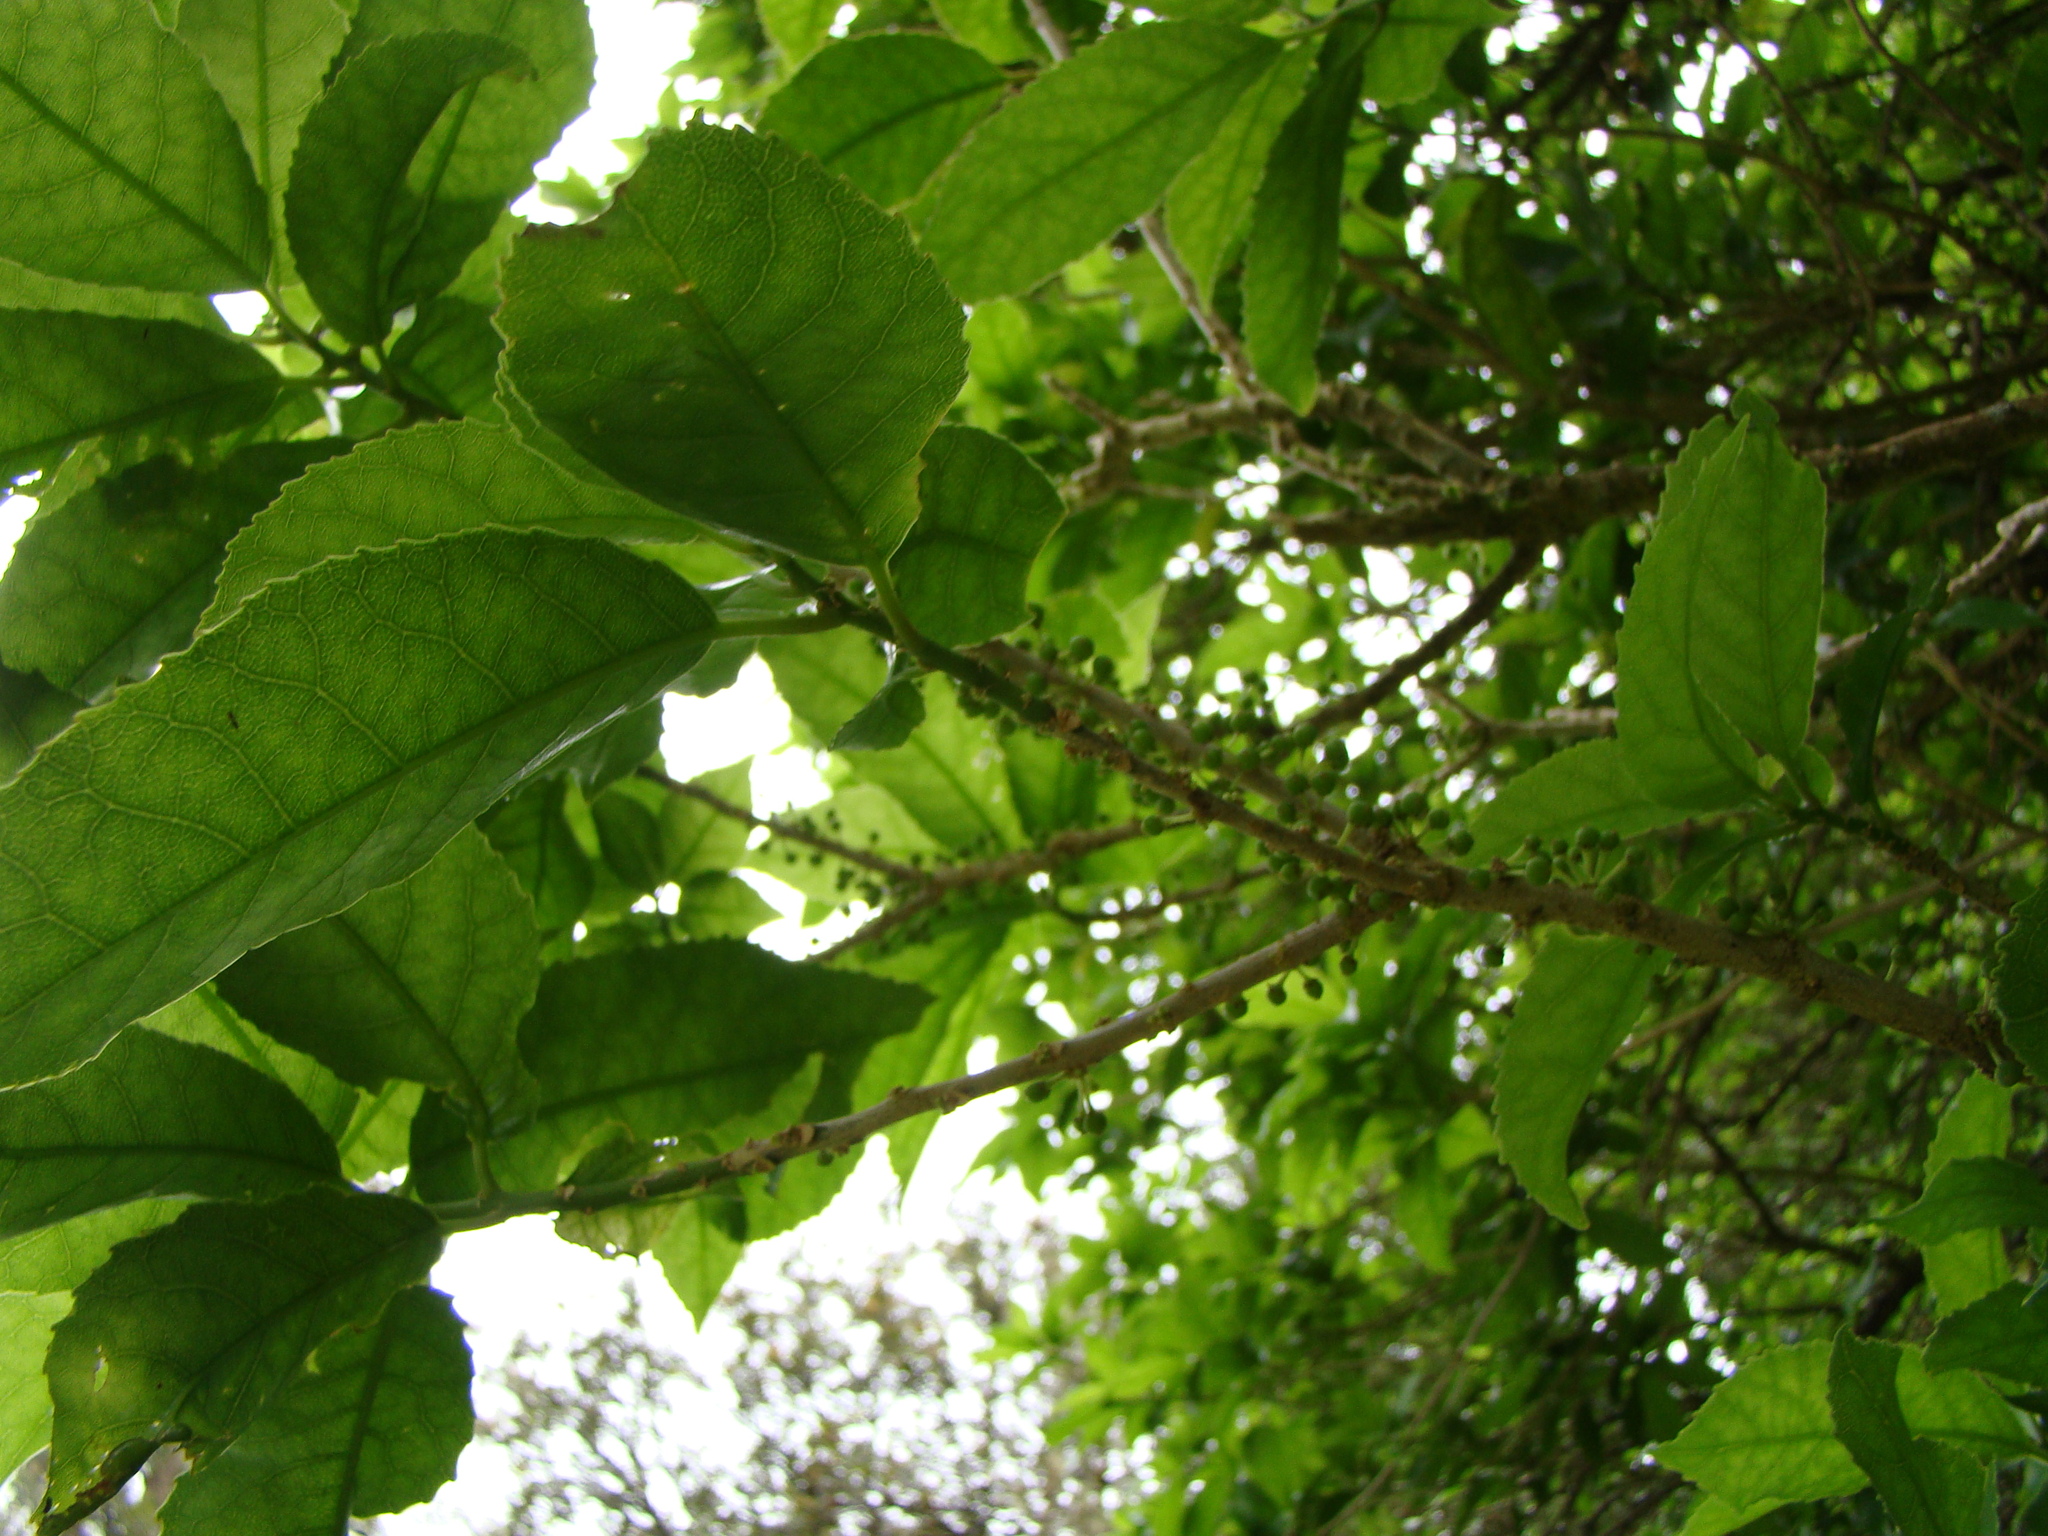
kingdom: Plantae
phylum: Tracheophyta
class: Magnoliopsida
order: Malpighiales
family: Violaceae
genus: Melicytus
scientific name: Melicytus ramiflorus
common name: Mahoe
